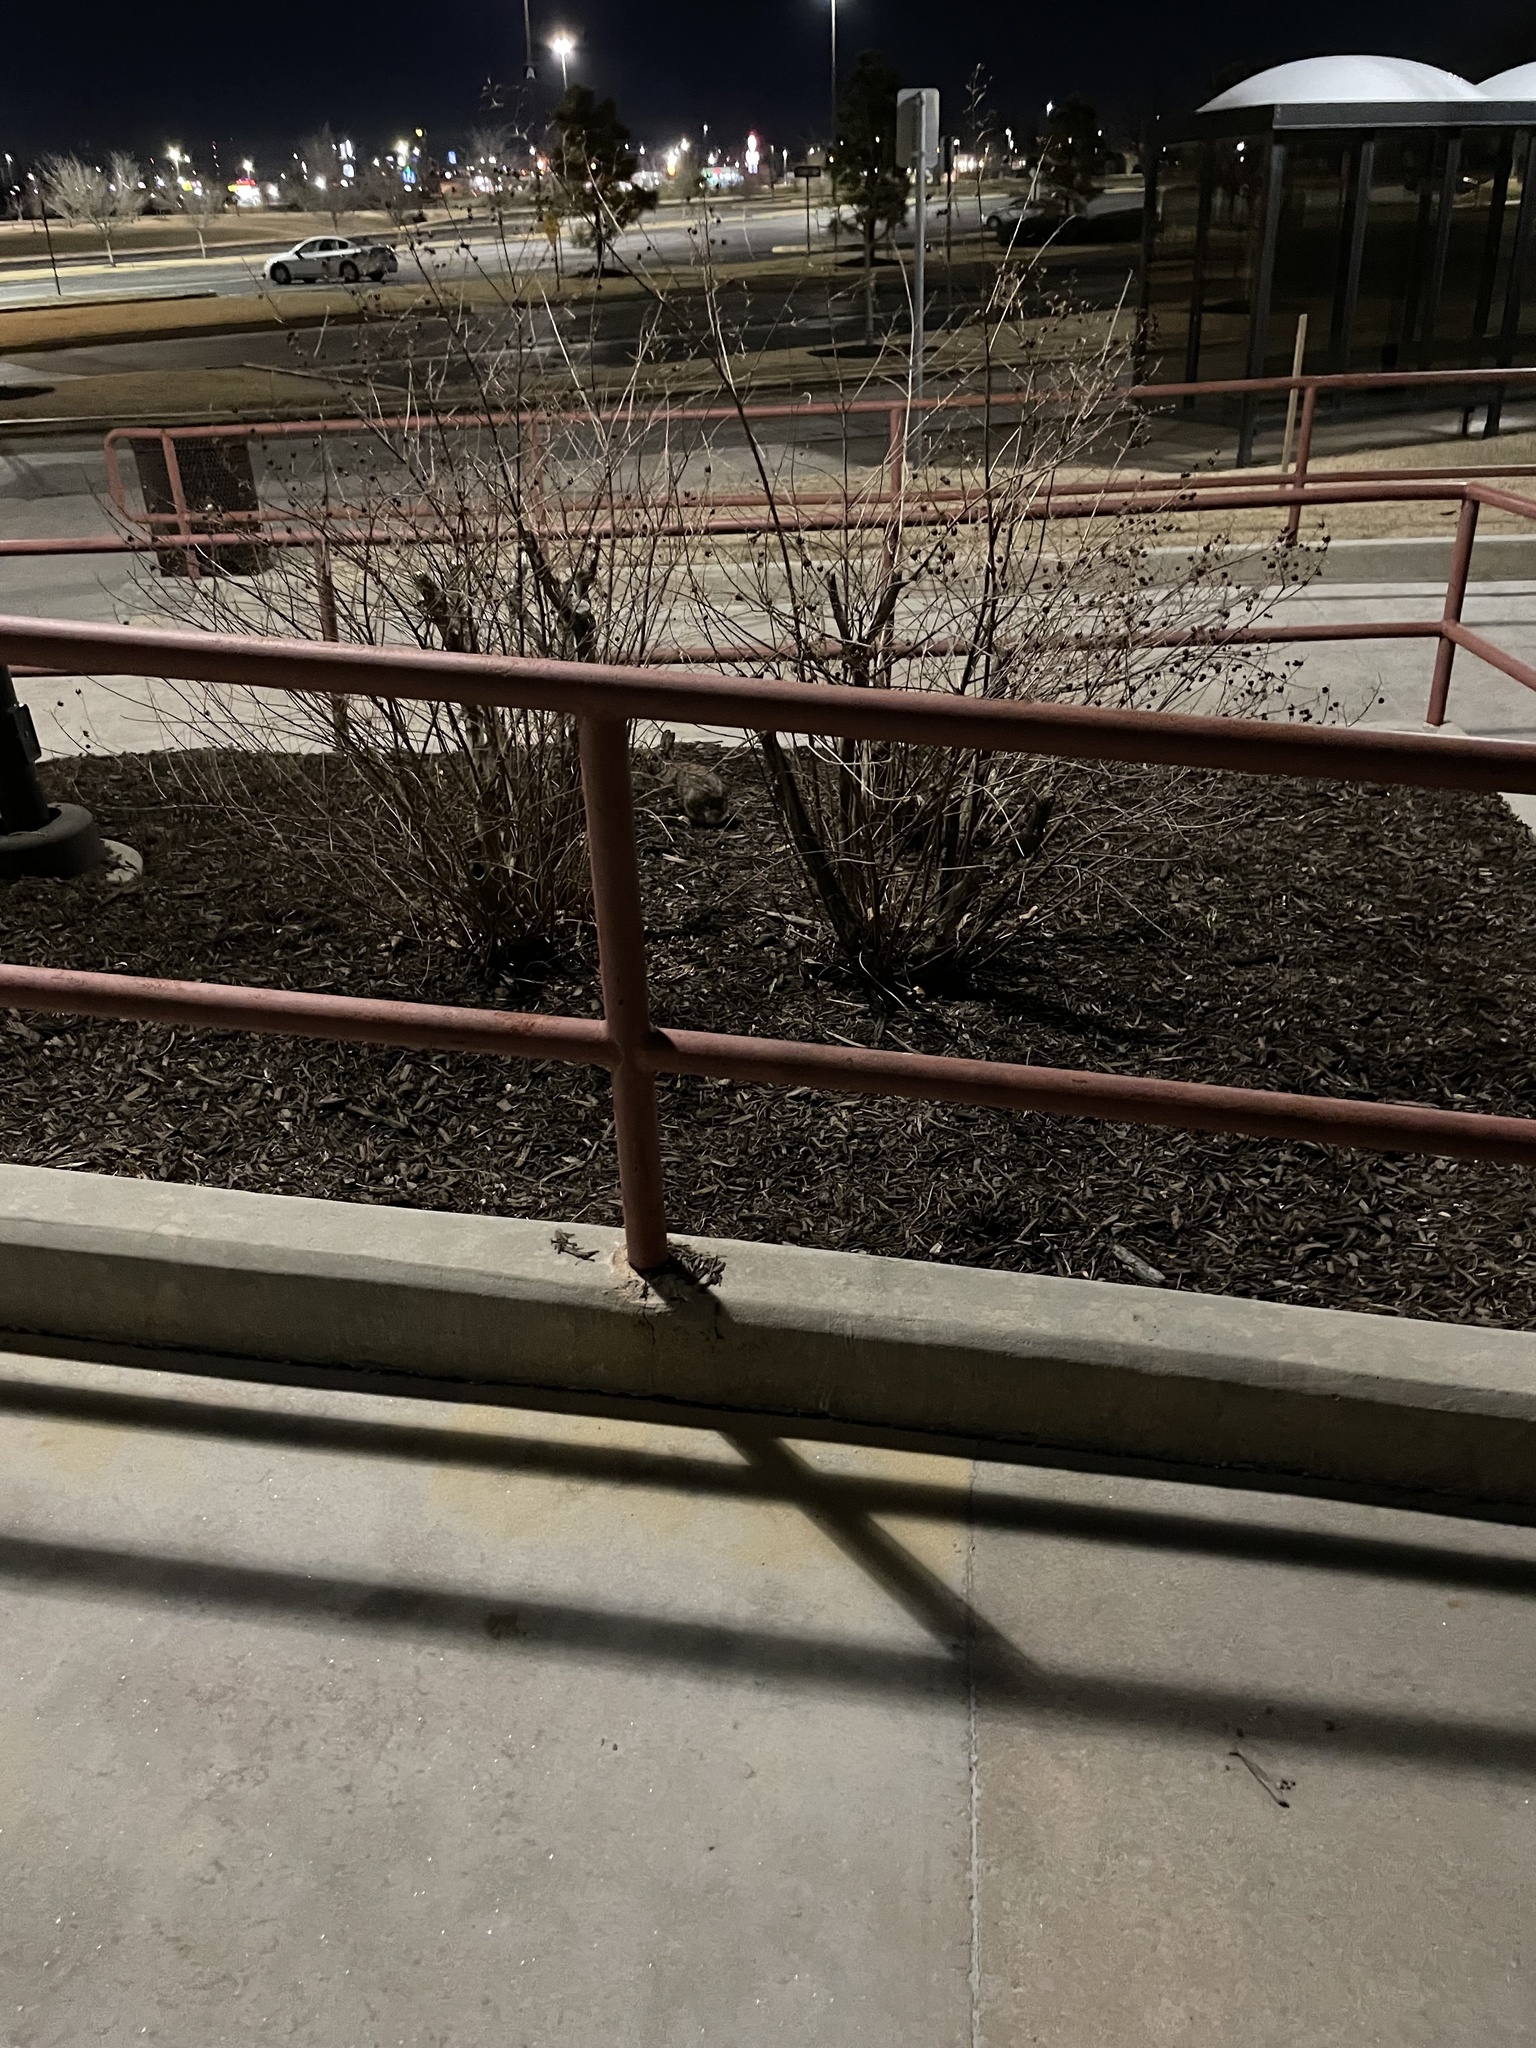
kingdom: Animalia
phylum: Chordata
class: Mammalia
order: Lagomorpha
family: Leporidae
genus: Sylvilagus
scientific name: Sylvilagus floridanus
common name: Eastern cottontail
